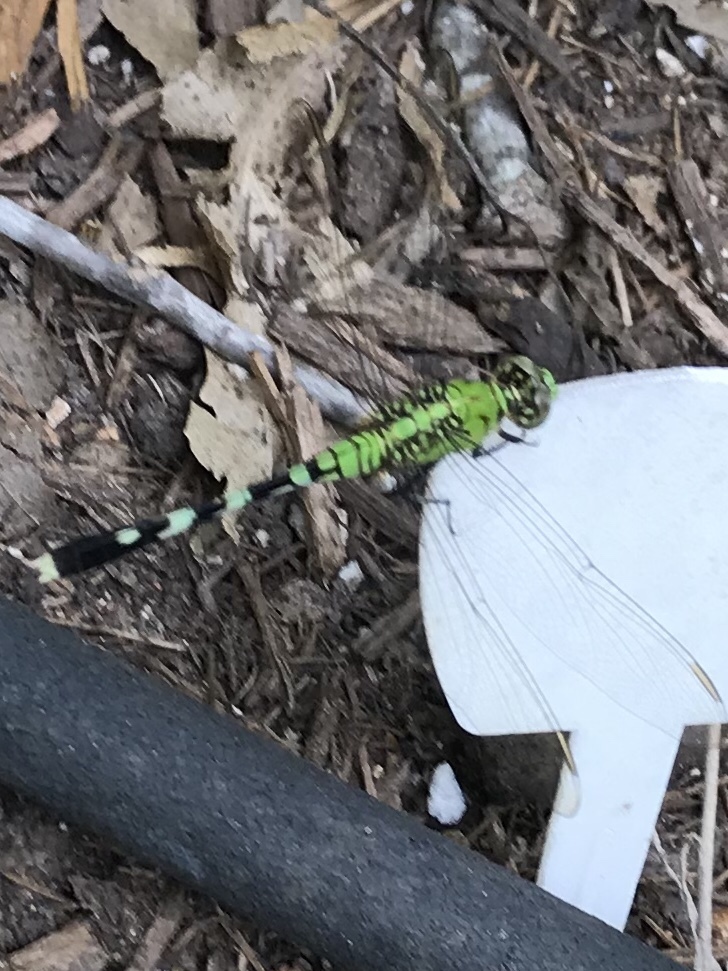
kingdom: Animalia
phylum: Arthropoda
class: Insecta
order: Odonata
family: Libellulidae
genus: Erythemis
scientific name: Erythemis simplicicollis
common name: Eastern pondhawk
